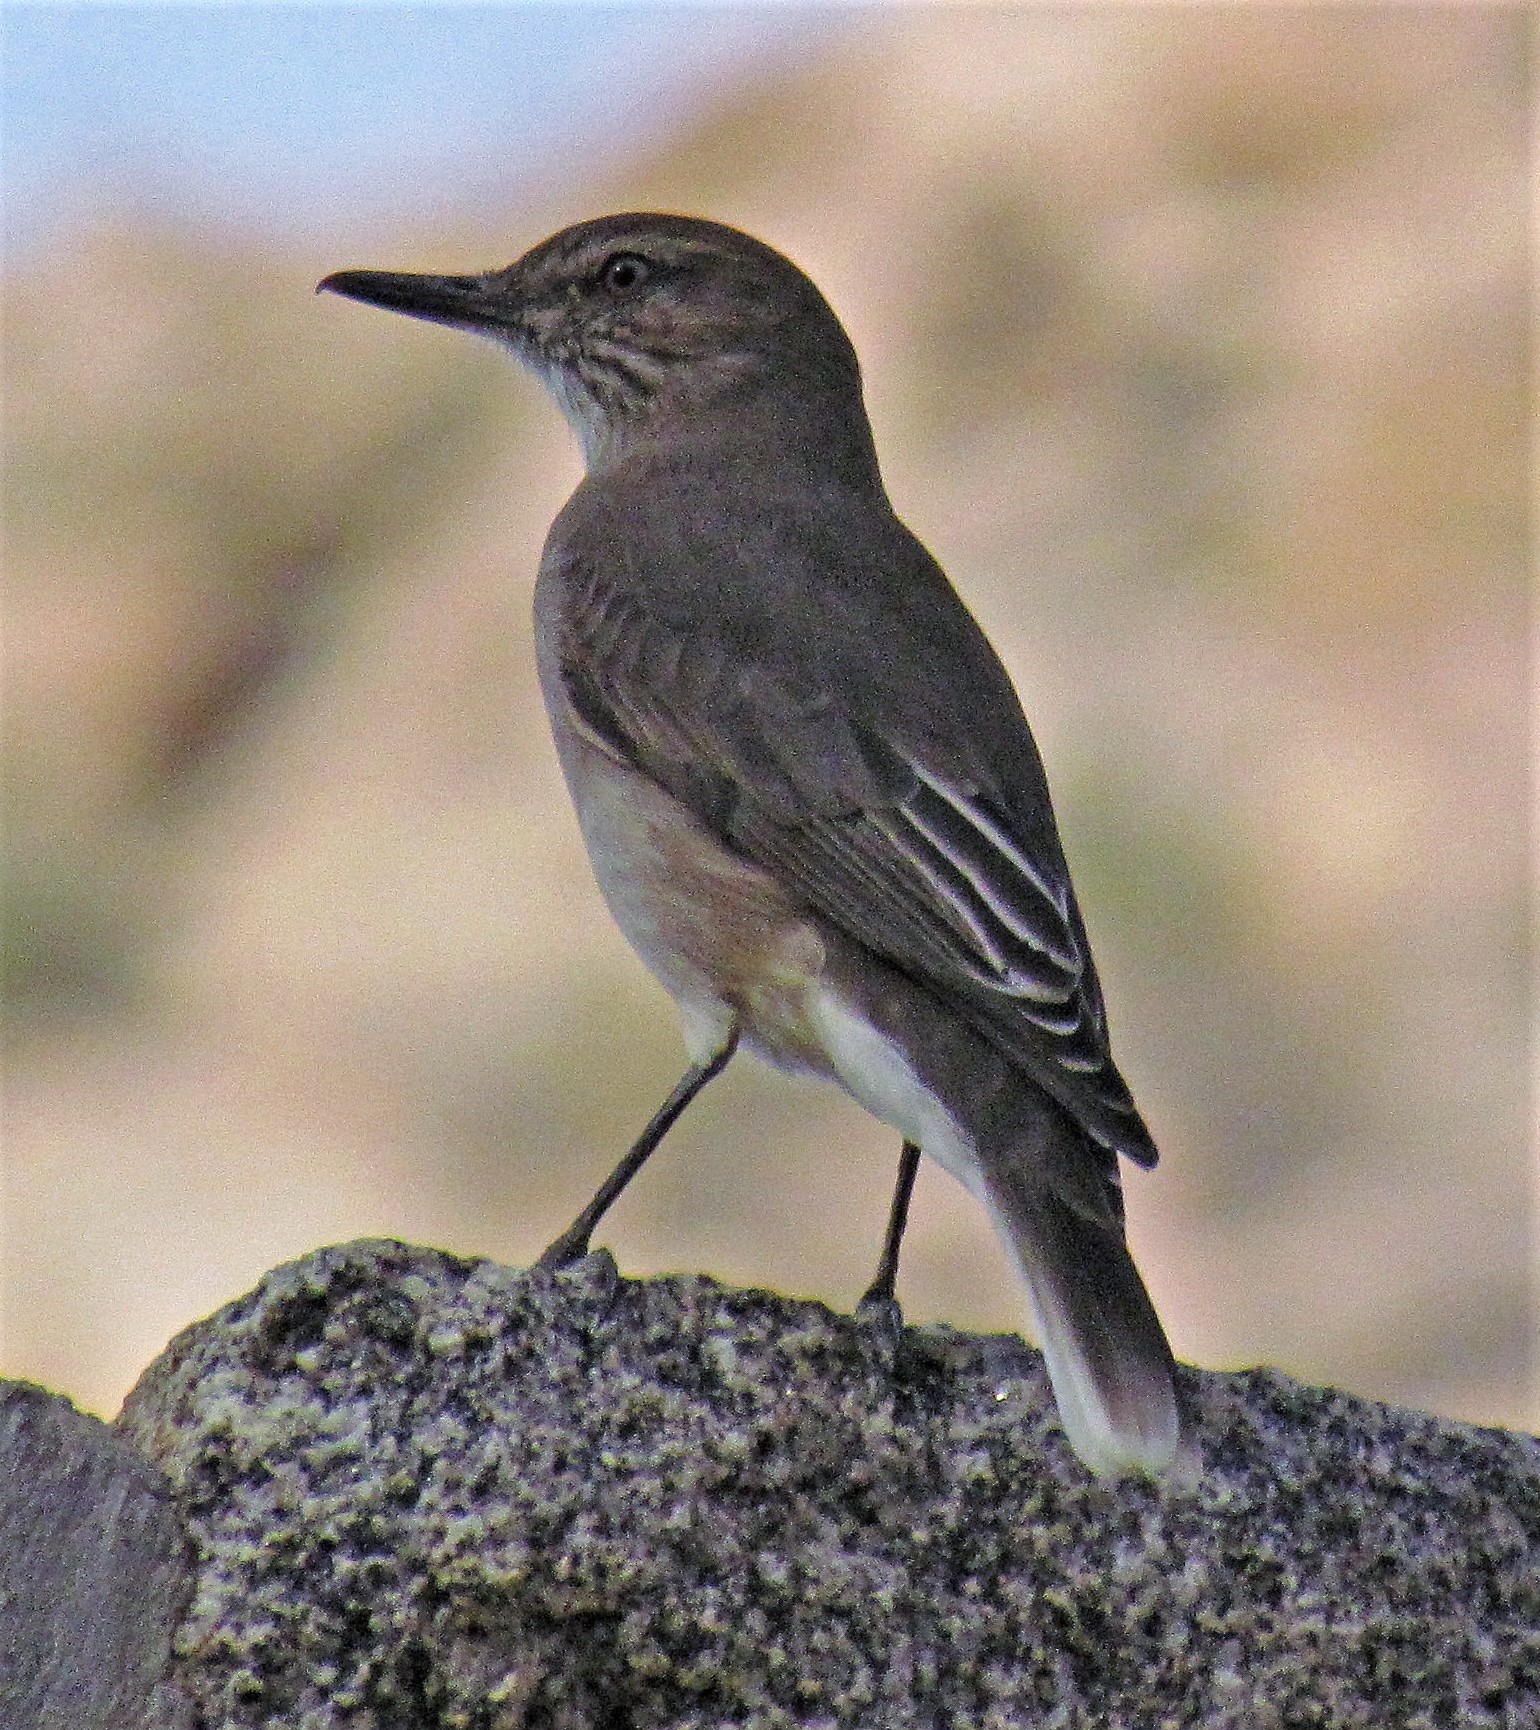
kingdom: Animalia
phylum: Chordata
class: Aves
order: Passeriformes
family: Tyrannidae
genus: Agriornis
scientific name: Agriornis montanus
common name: Black-billed shrike-tyrant
